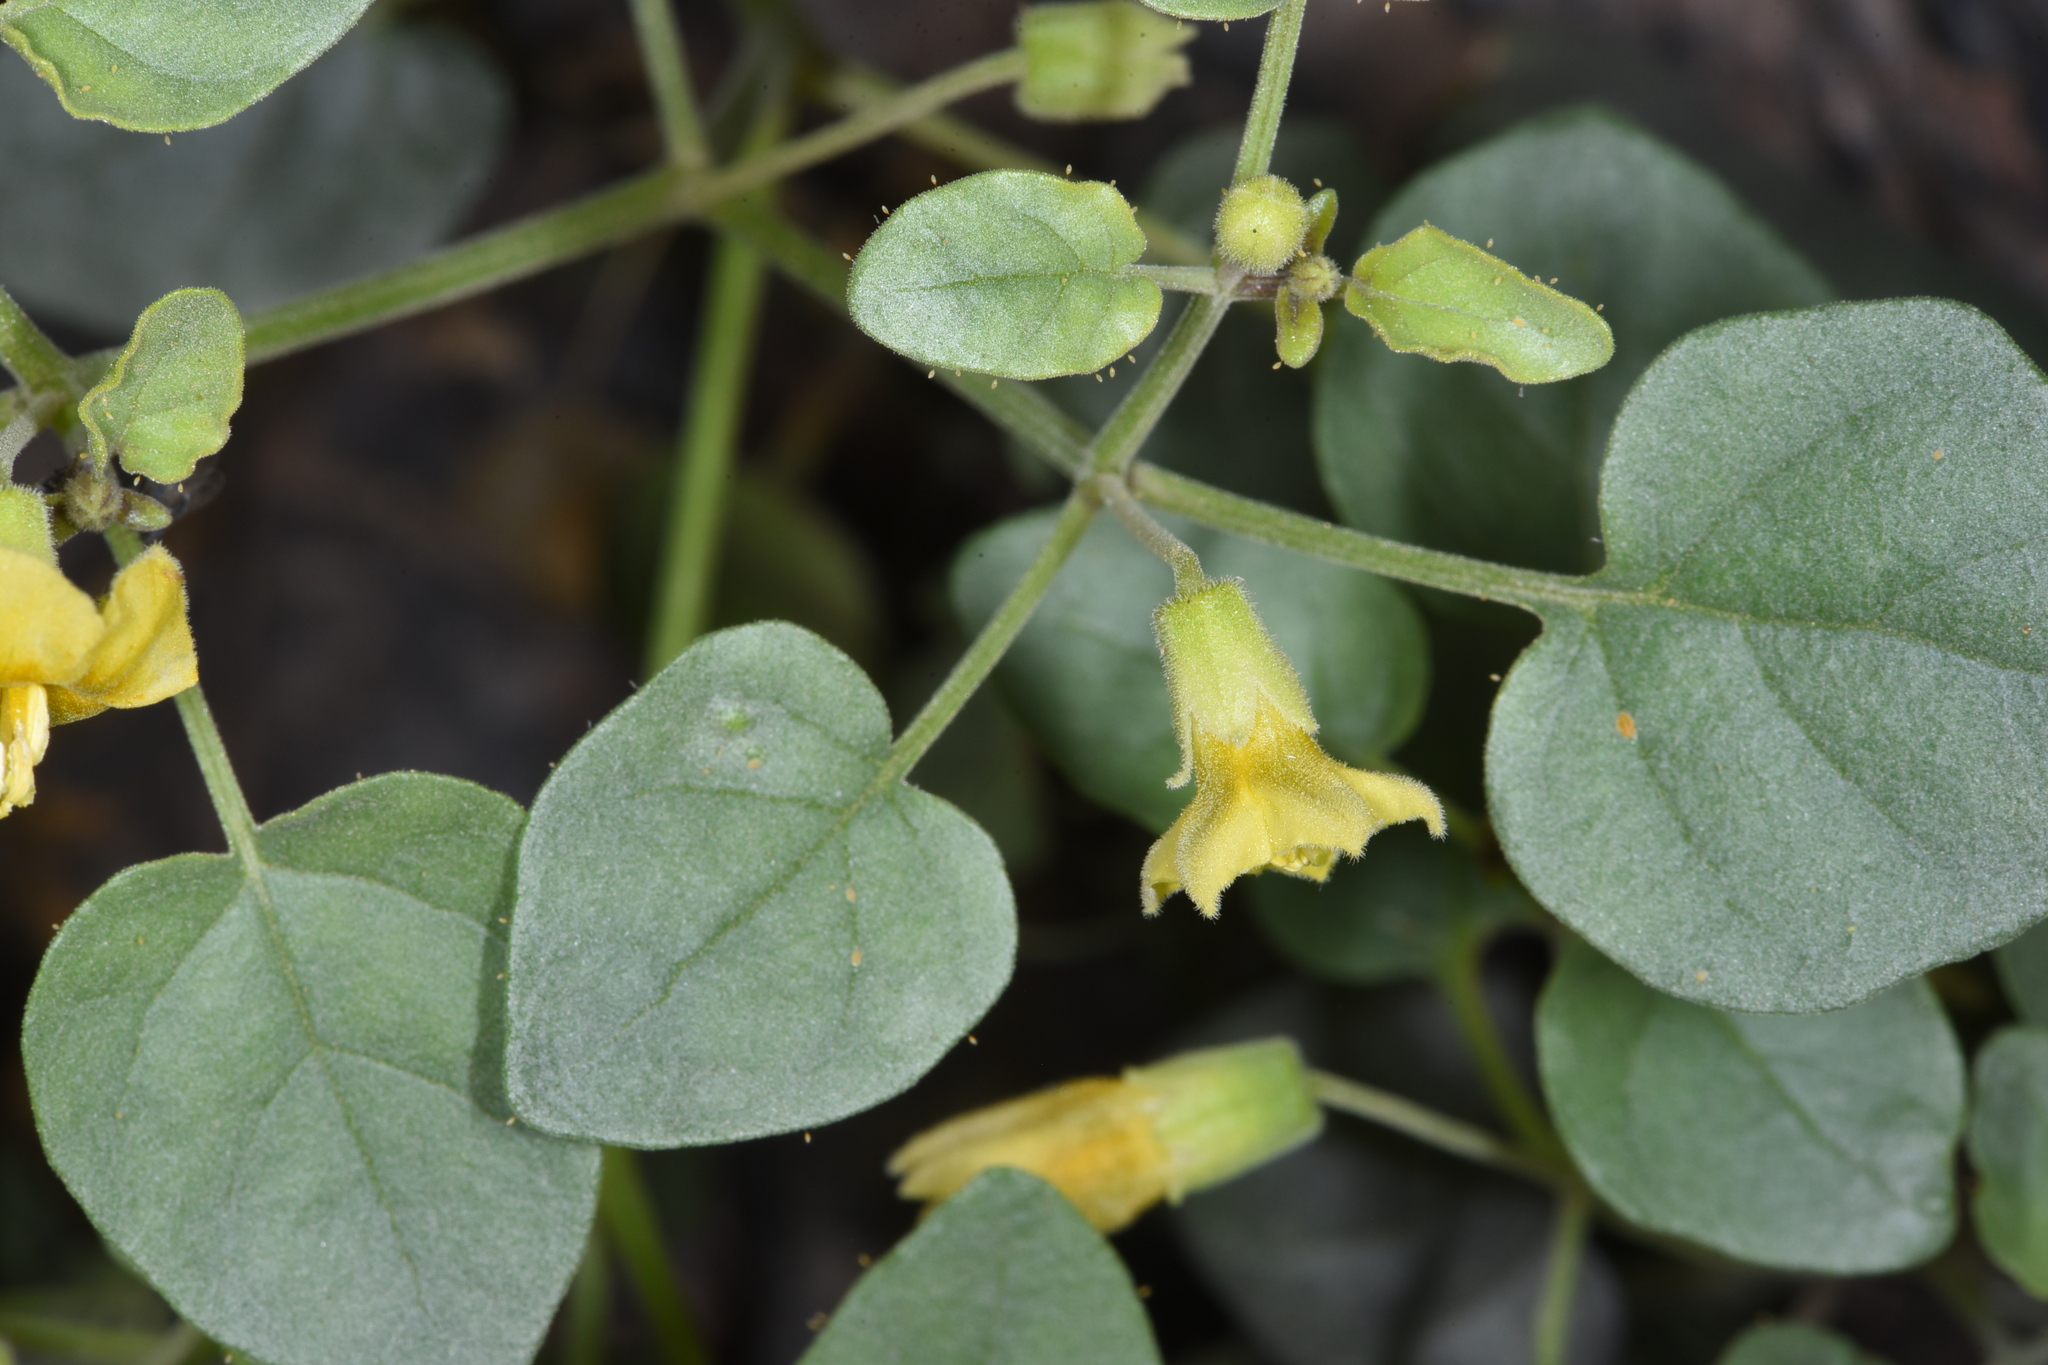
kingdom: Plantae
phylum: Tracheophyta
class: Magnoliopsida
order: Solanales
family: Solanaceae
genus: Physalis
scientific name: Physalis crassifolia
